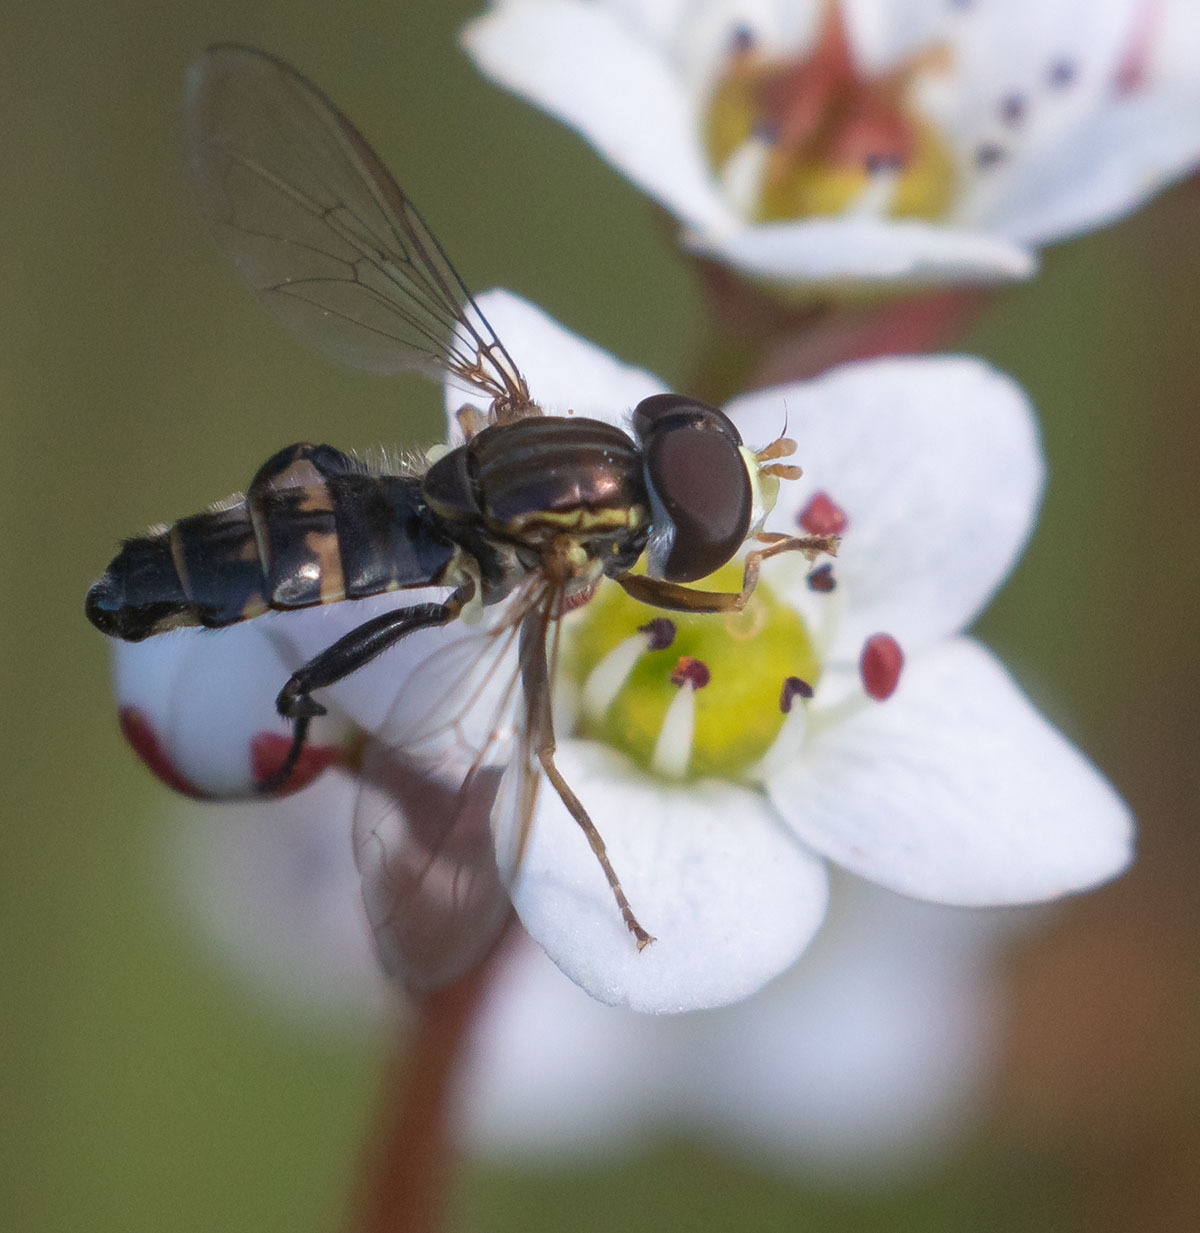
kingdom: Animalia
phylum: Arthropoda
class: Insecta
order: Diptera
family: Syrphidae
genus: Toxomerus
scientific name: Toxomerus occidentalis
